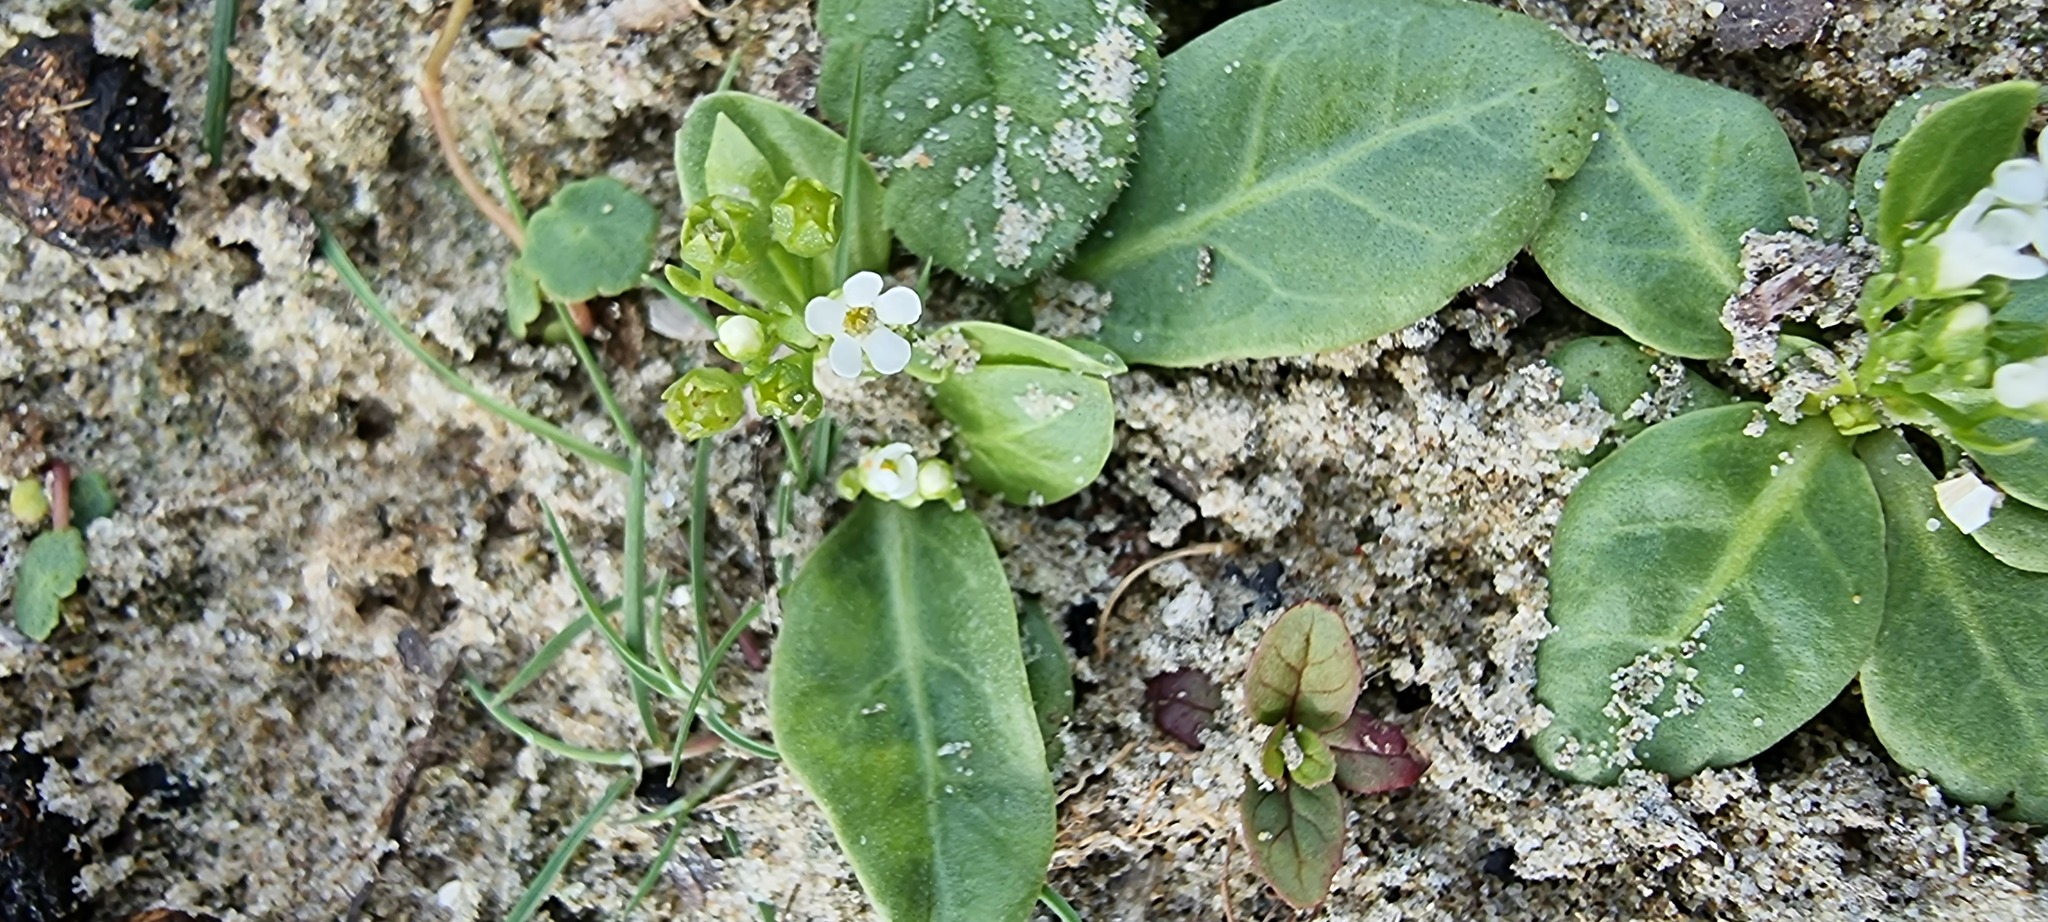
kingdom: Plantae
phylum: Tracheophyta
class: Magnoliopsida
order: Ericales
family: Primulaceae
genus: Samolus
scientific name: Samolus valerandi
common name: Brookweed
